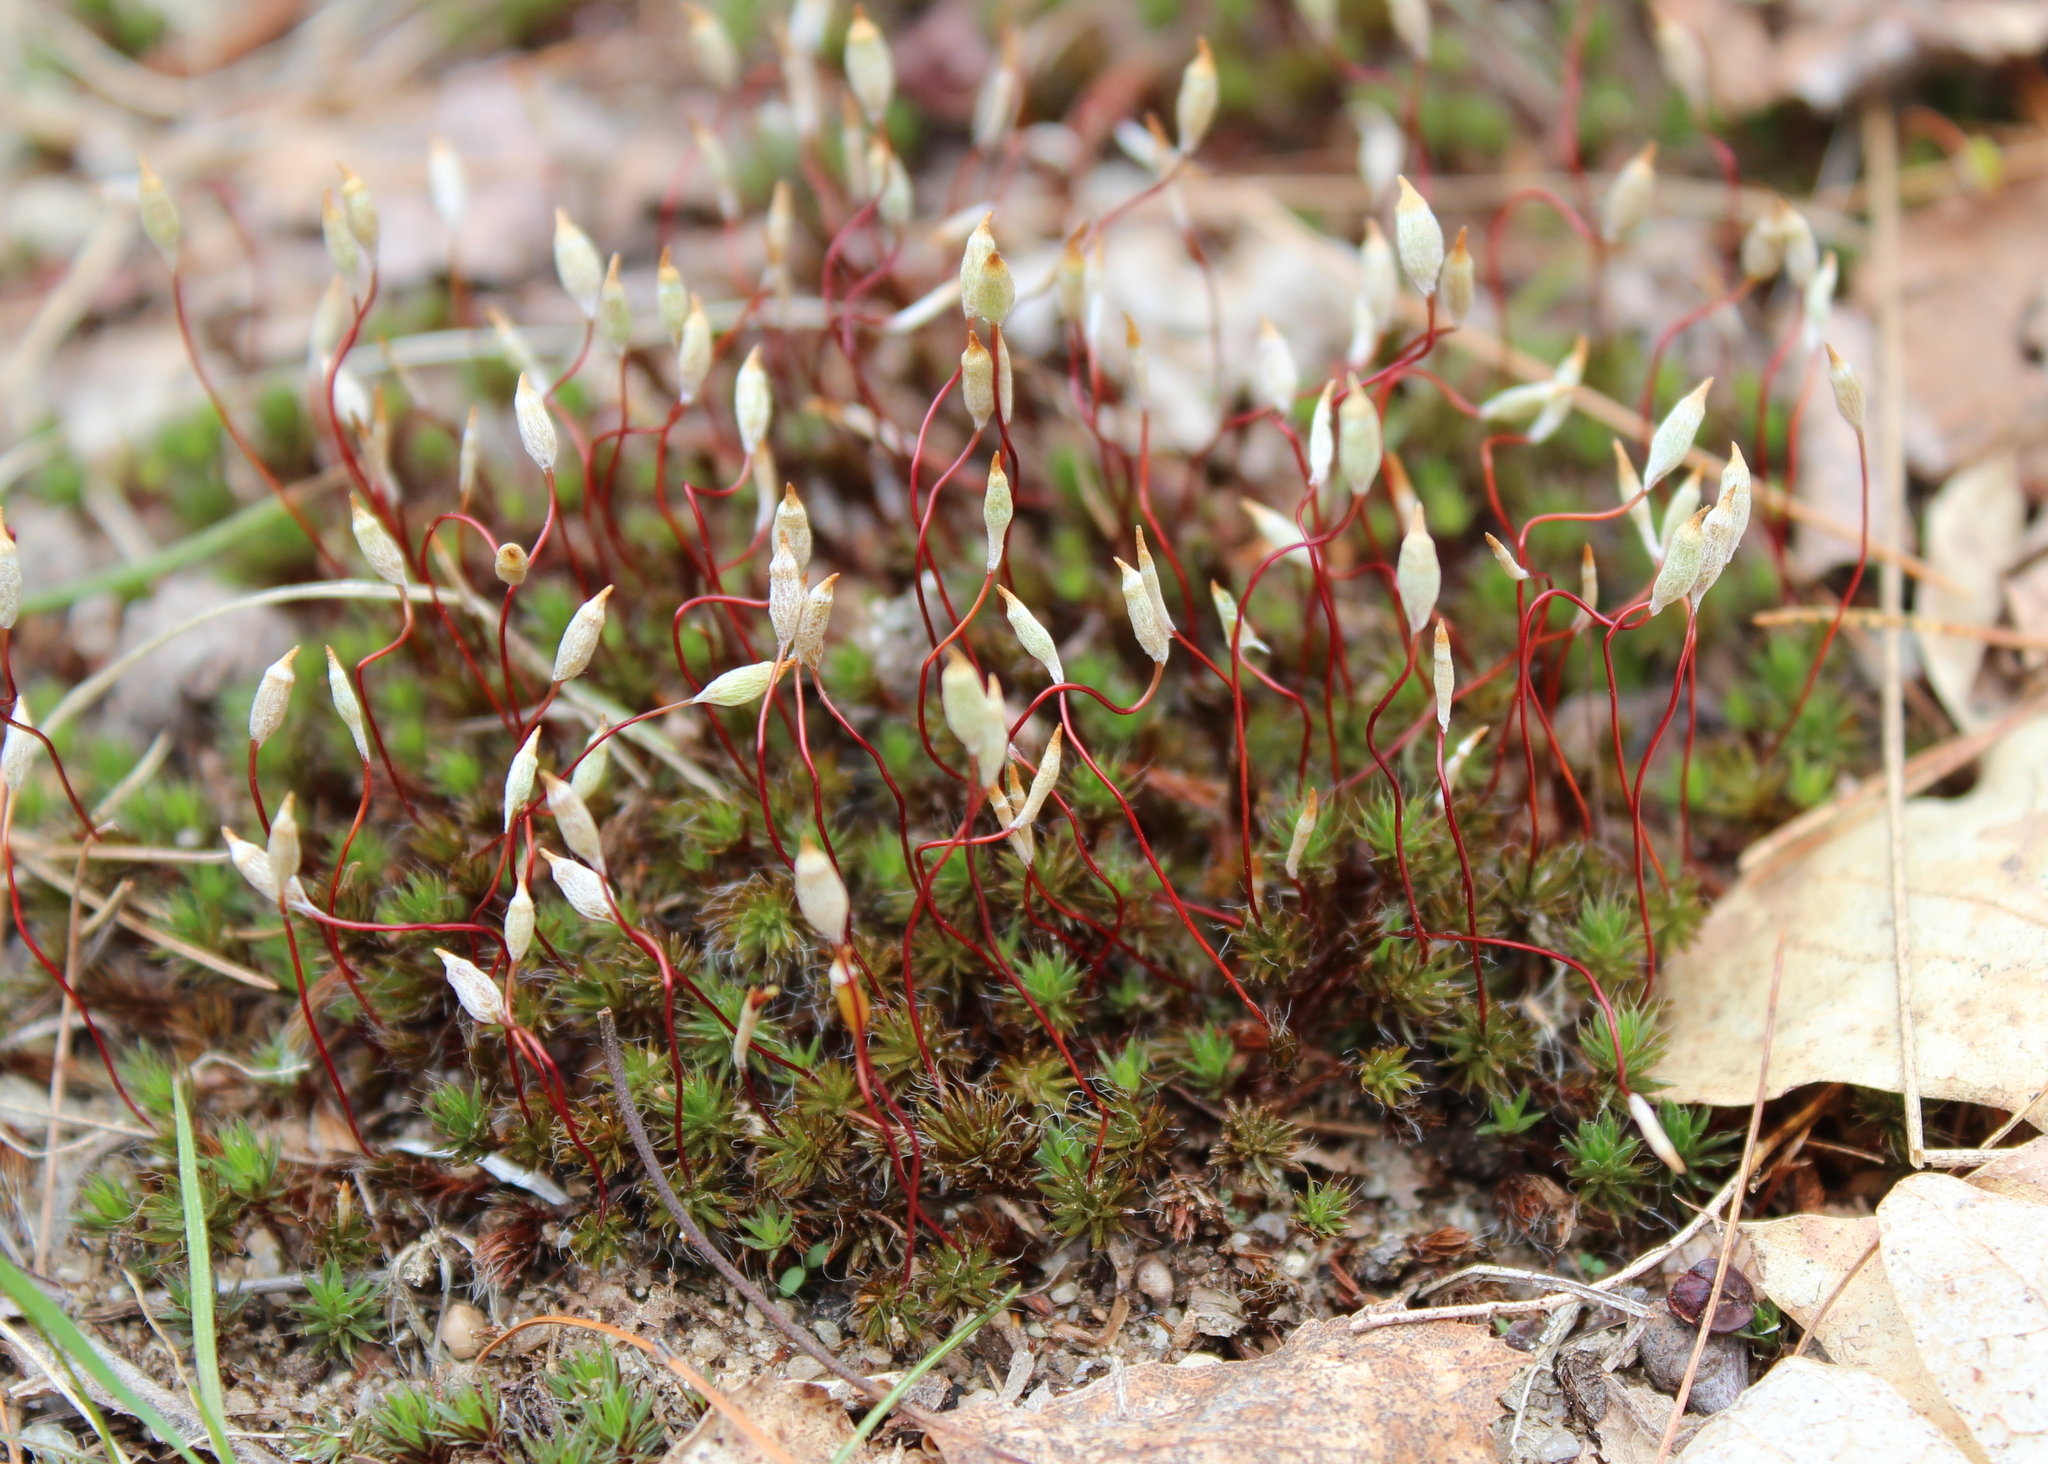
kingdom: Plantae
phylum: Bryophyta
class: Polytrichopsida
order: Polytrichales
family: Polytrichaceae
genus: Polytrichum
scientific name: Polytrichum piliferum
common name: Bristly haircap
